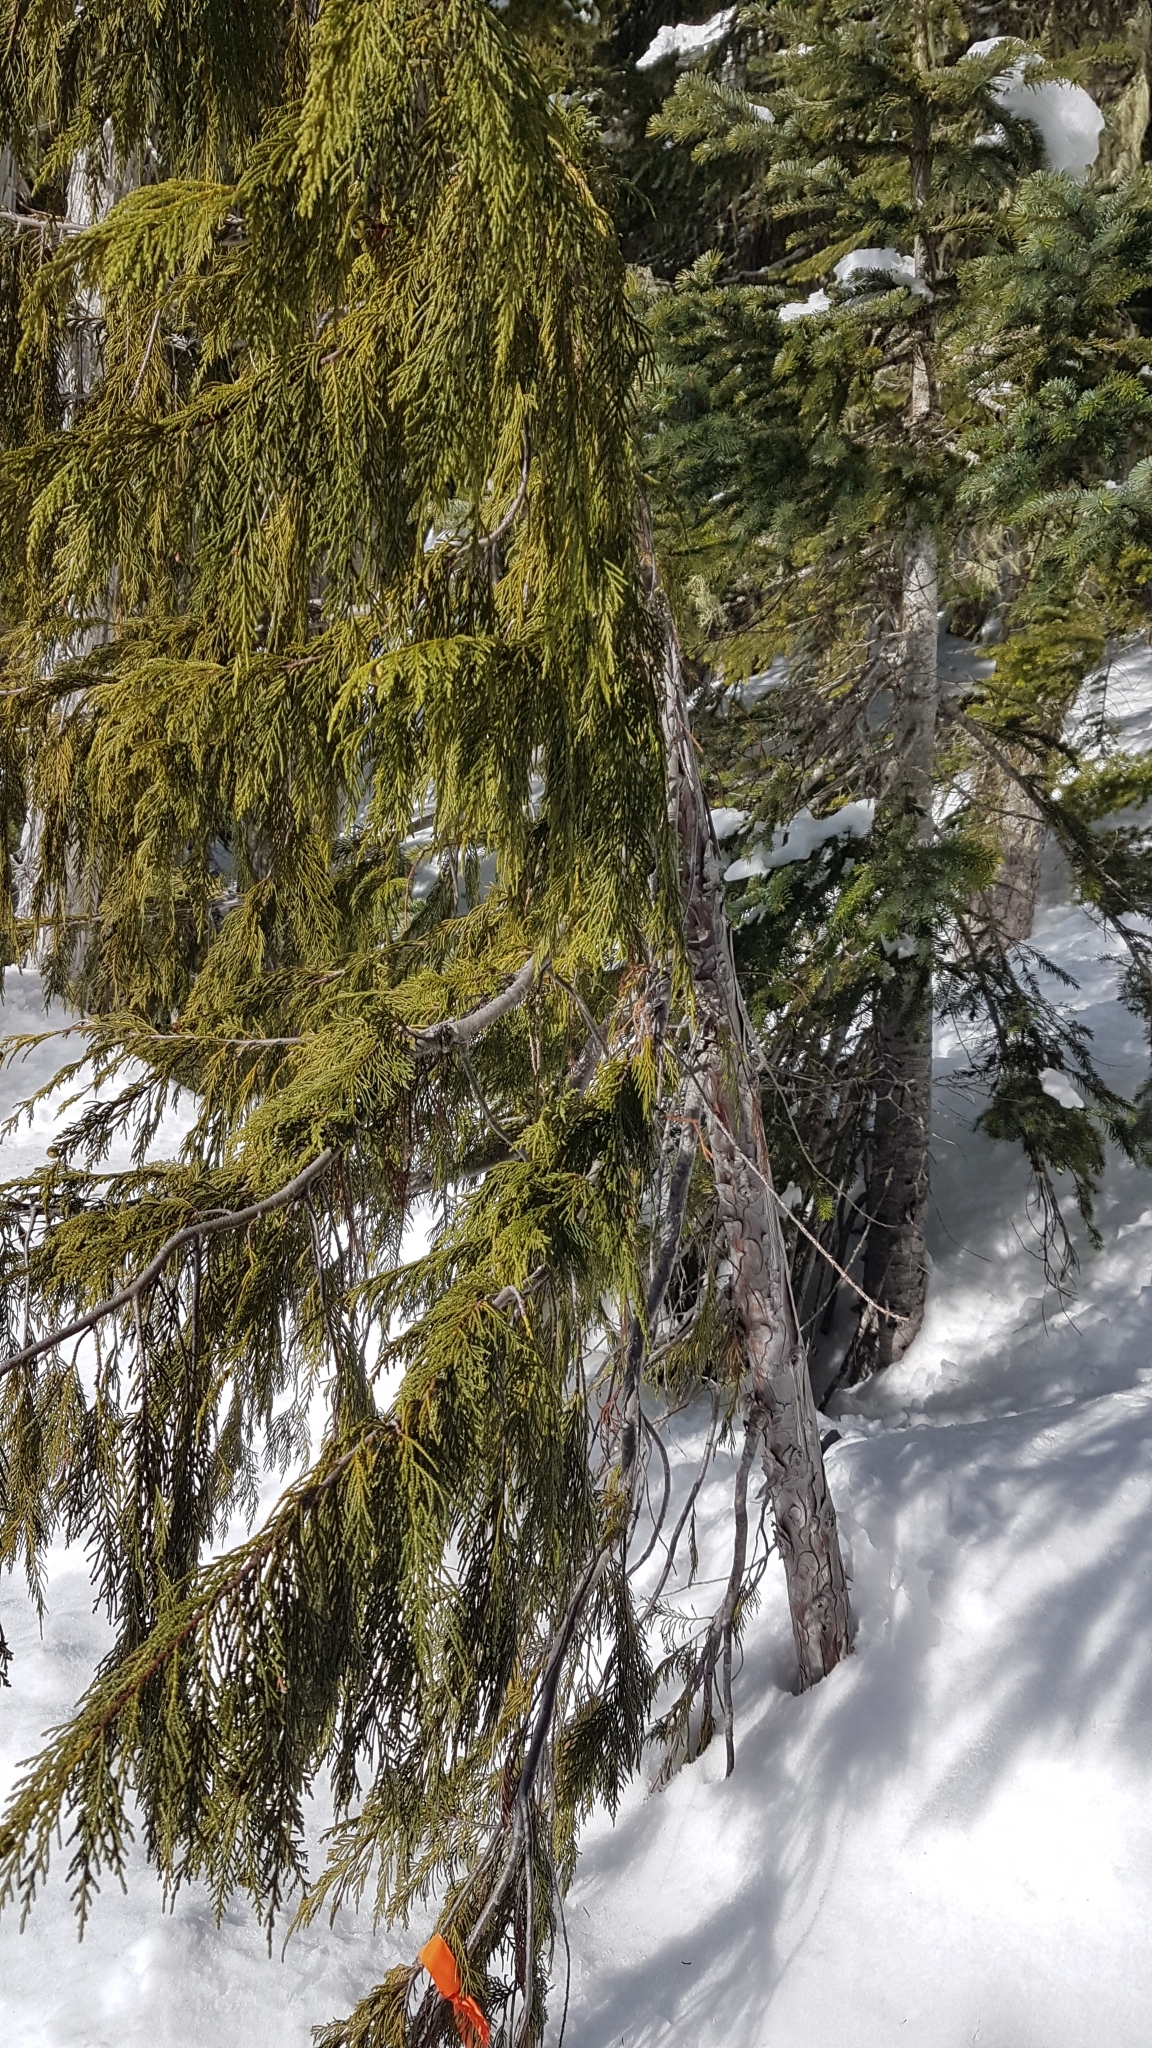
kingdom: Plantae
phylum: Tracheophyta
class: Pinopsida
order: Pinales
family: Cupressaceae
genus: Xanthocyparis
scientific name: Xanthocyparis nootkatensis
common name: Nootka cypress
